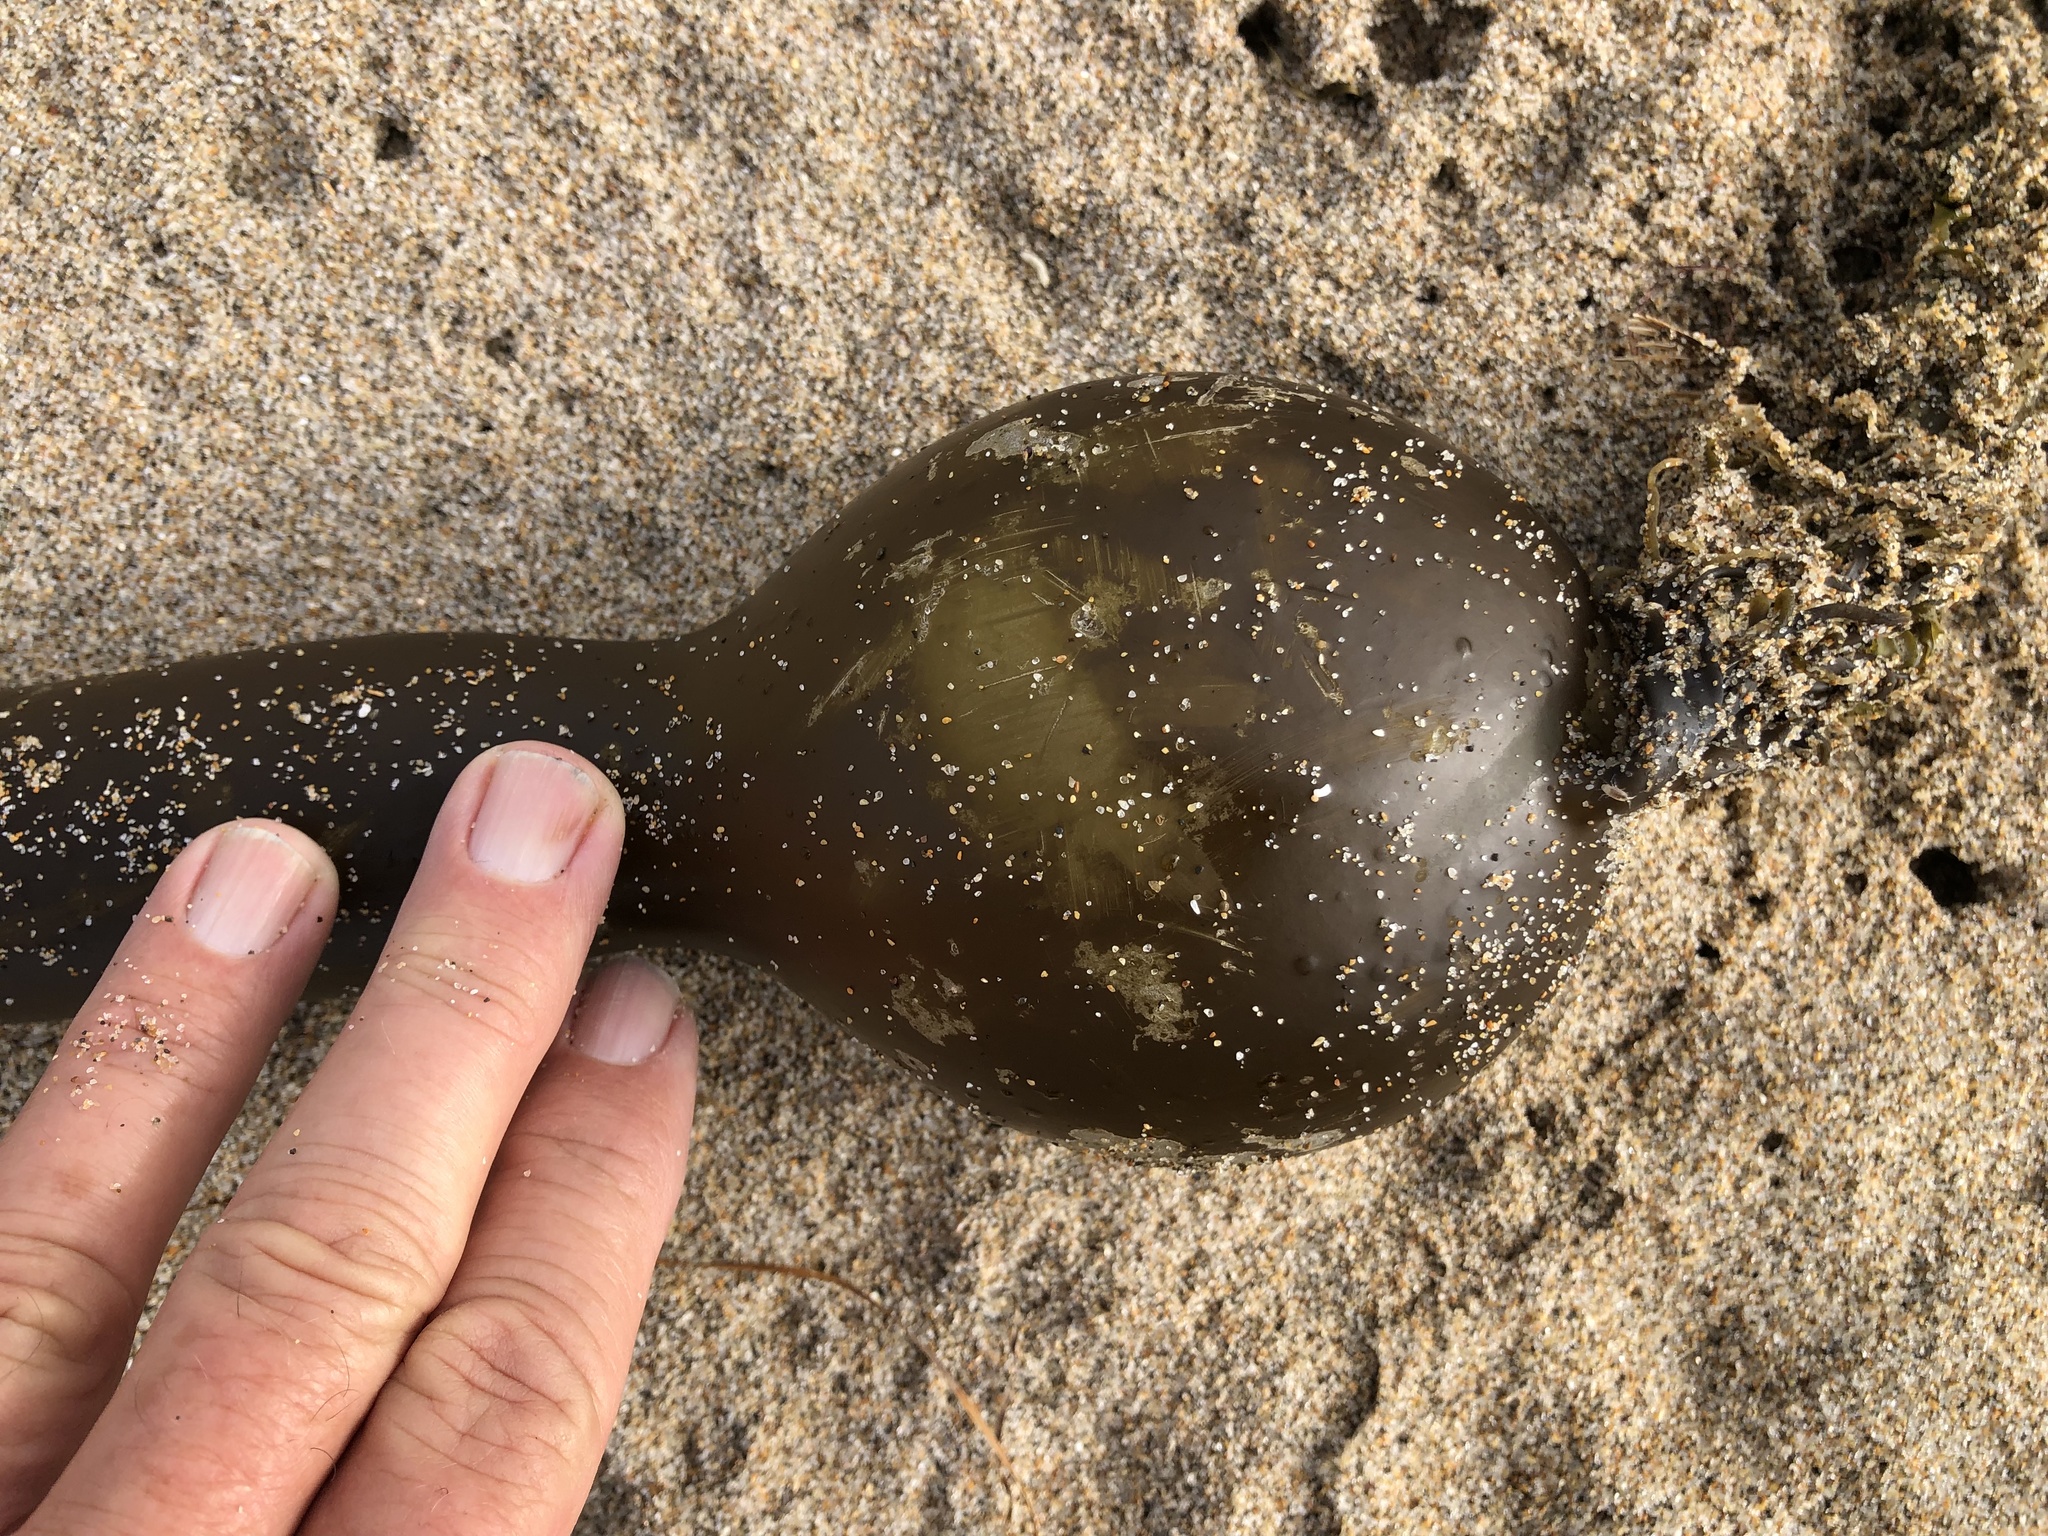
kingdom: Chromista
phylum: Ochrophyta
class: Phaeophyceae
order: Laminariales
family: Laminariaceae
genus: Nereocystis
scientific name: Nereocystis luetkeana
